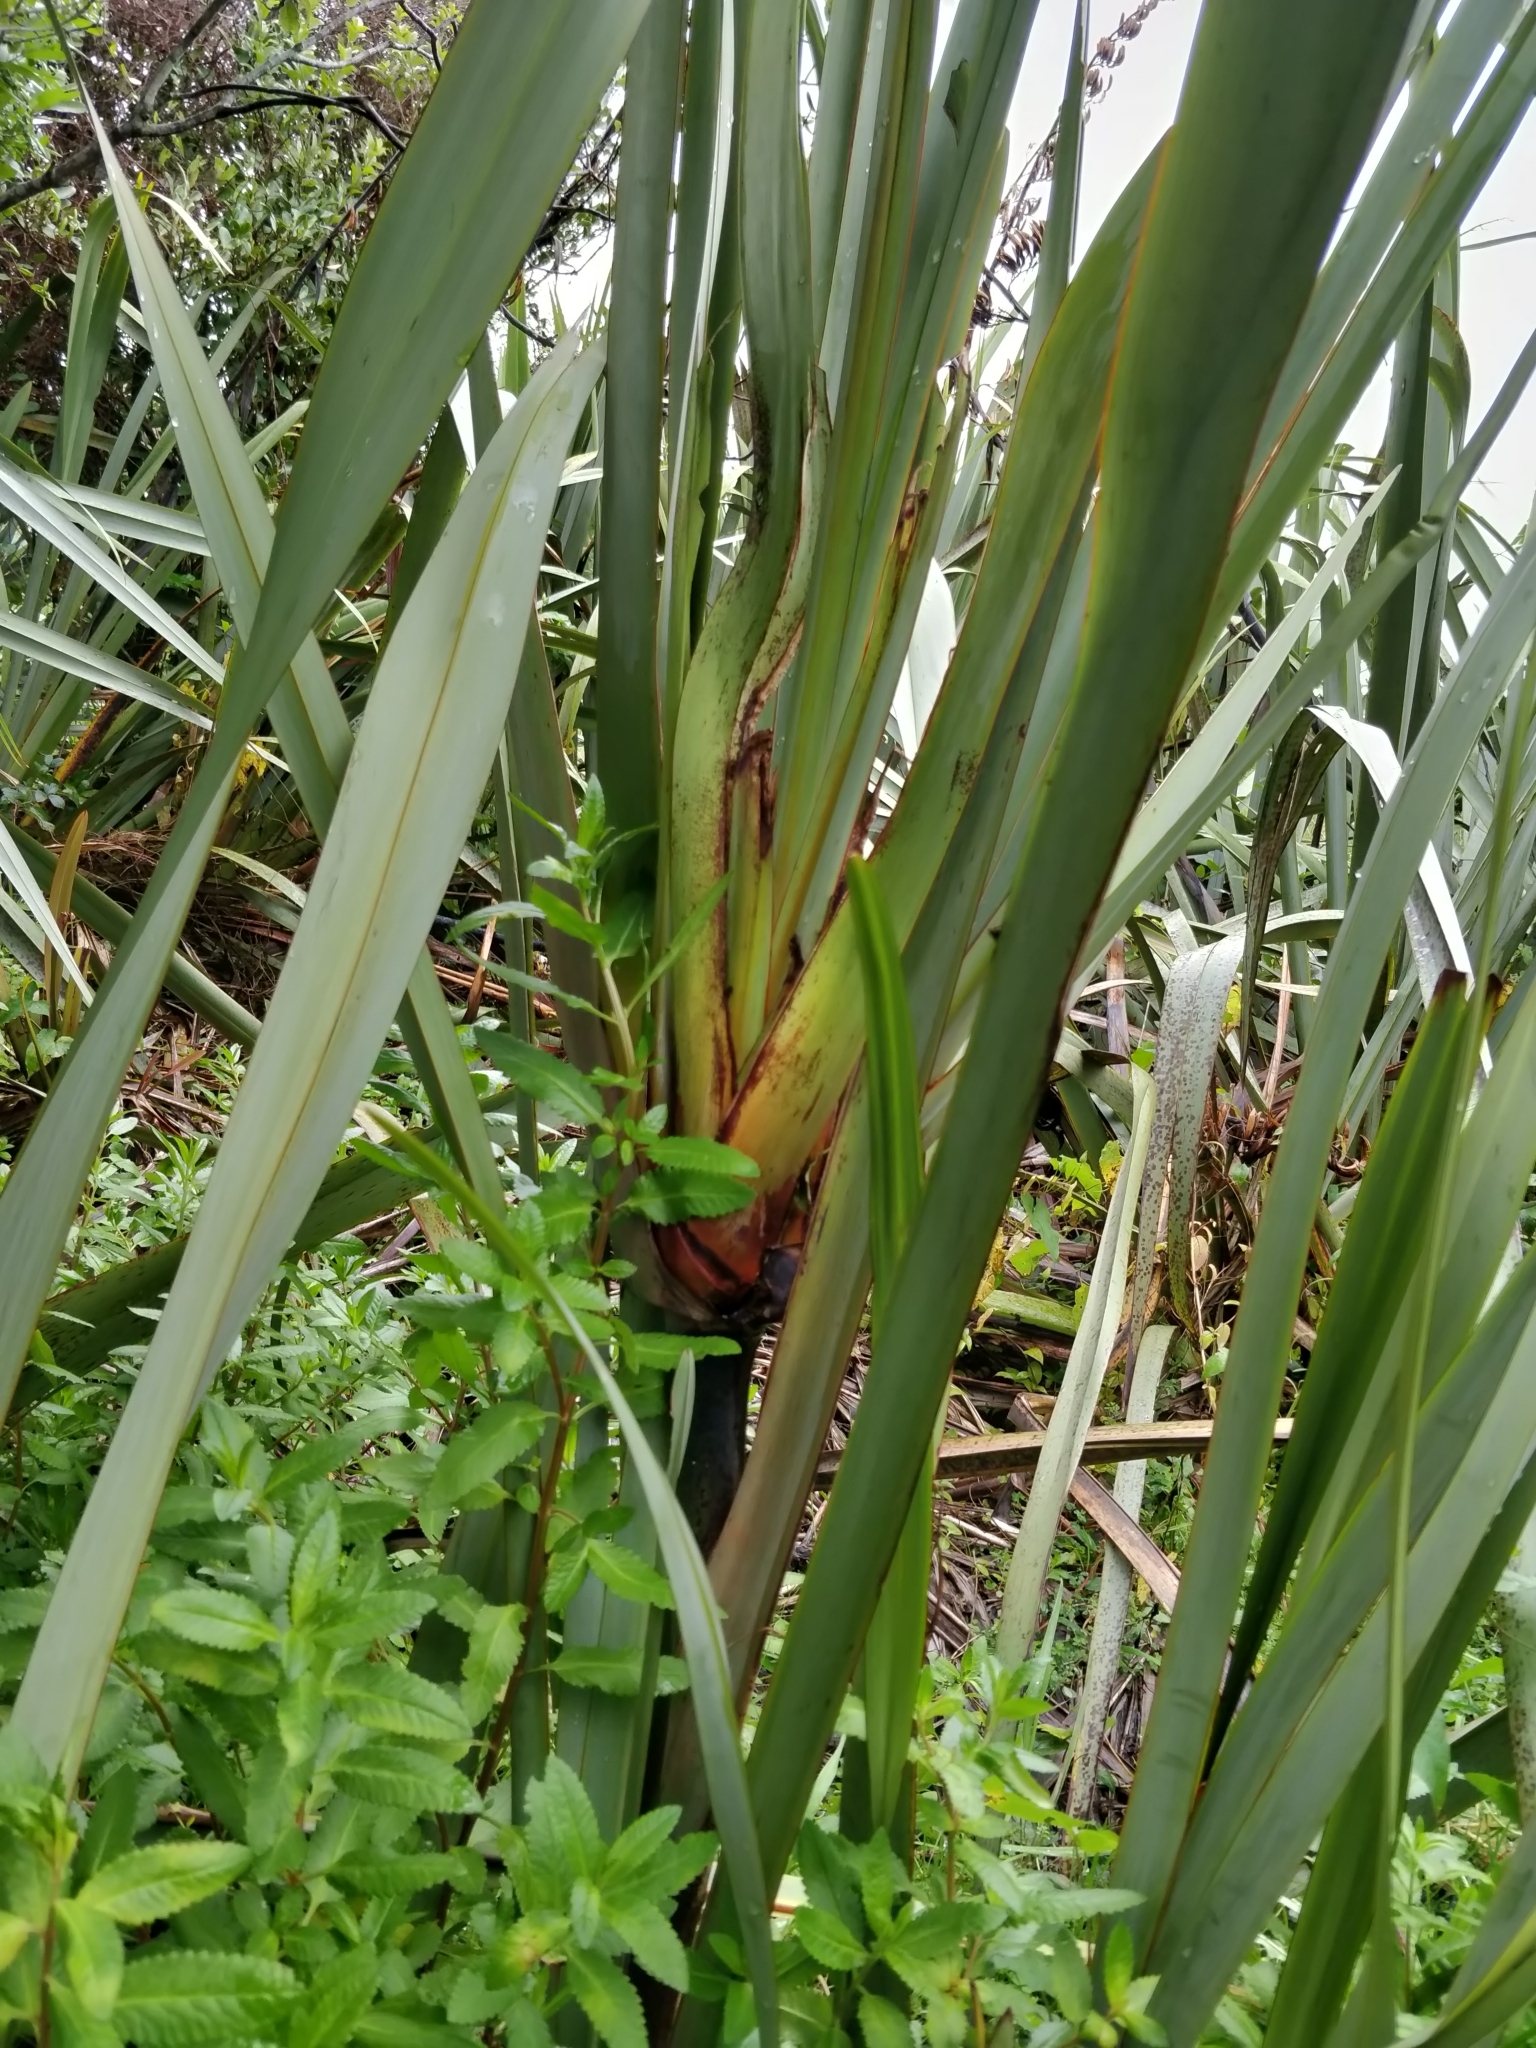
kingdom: Plantae
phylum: Tracheophyta
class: Liliopsida
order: Asparagales
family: Asphodelaceae
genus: Phormium
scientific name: Phormium tenax
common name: New zealand flax
